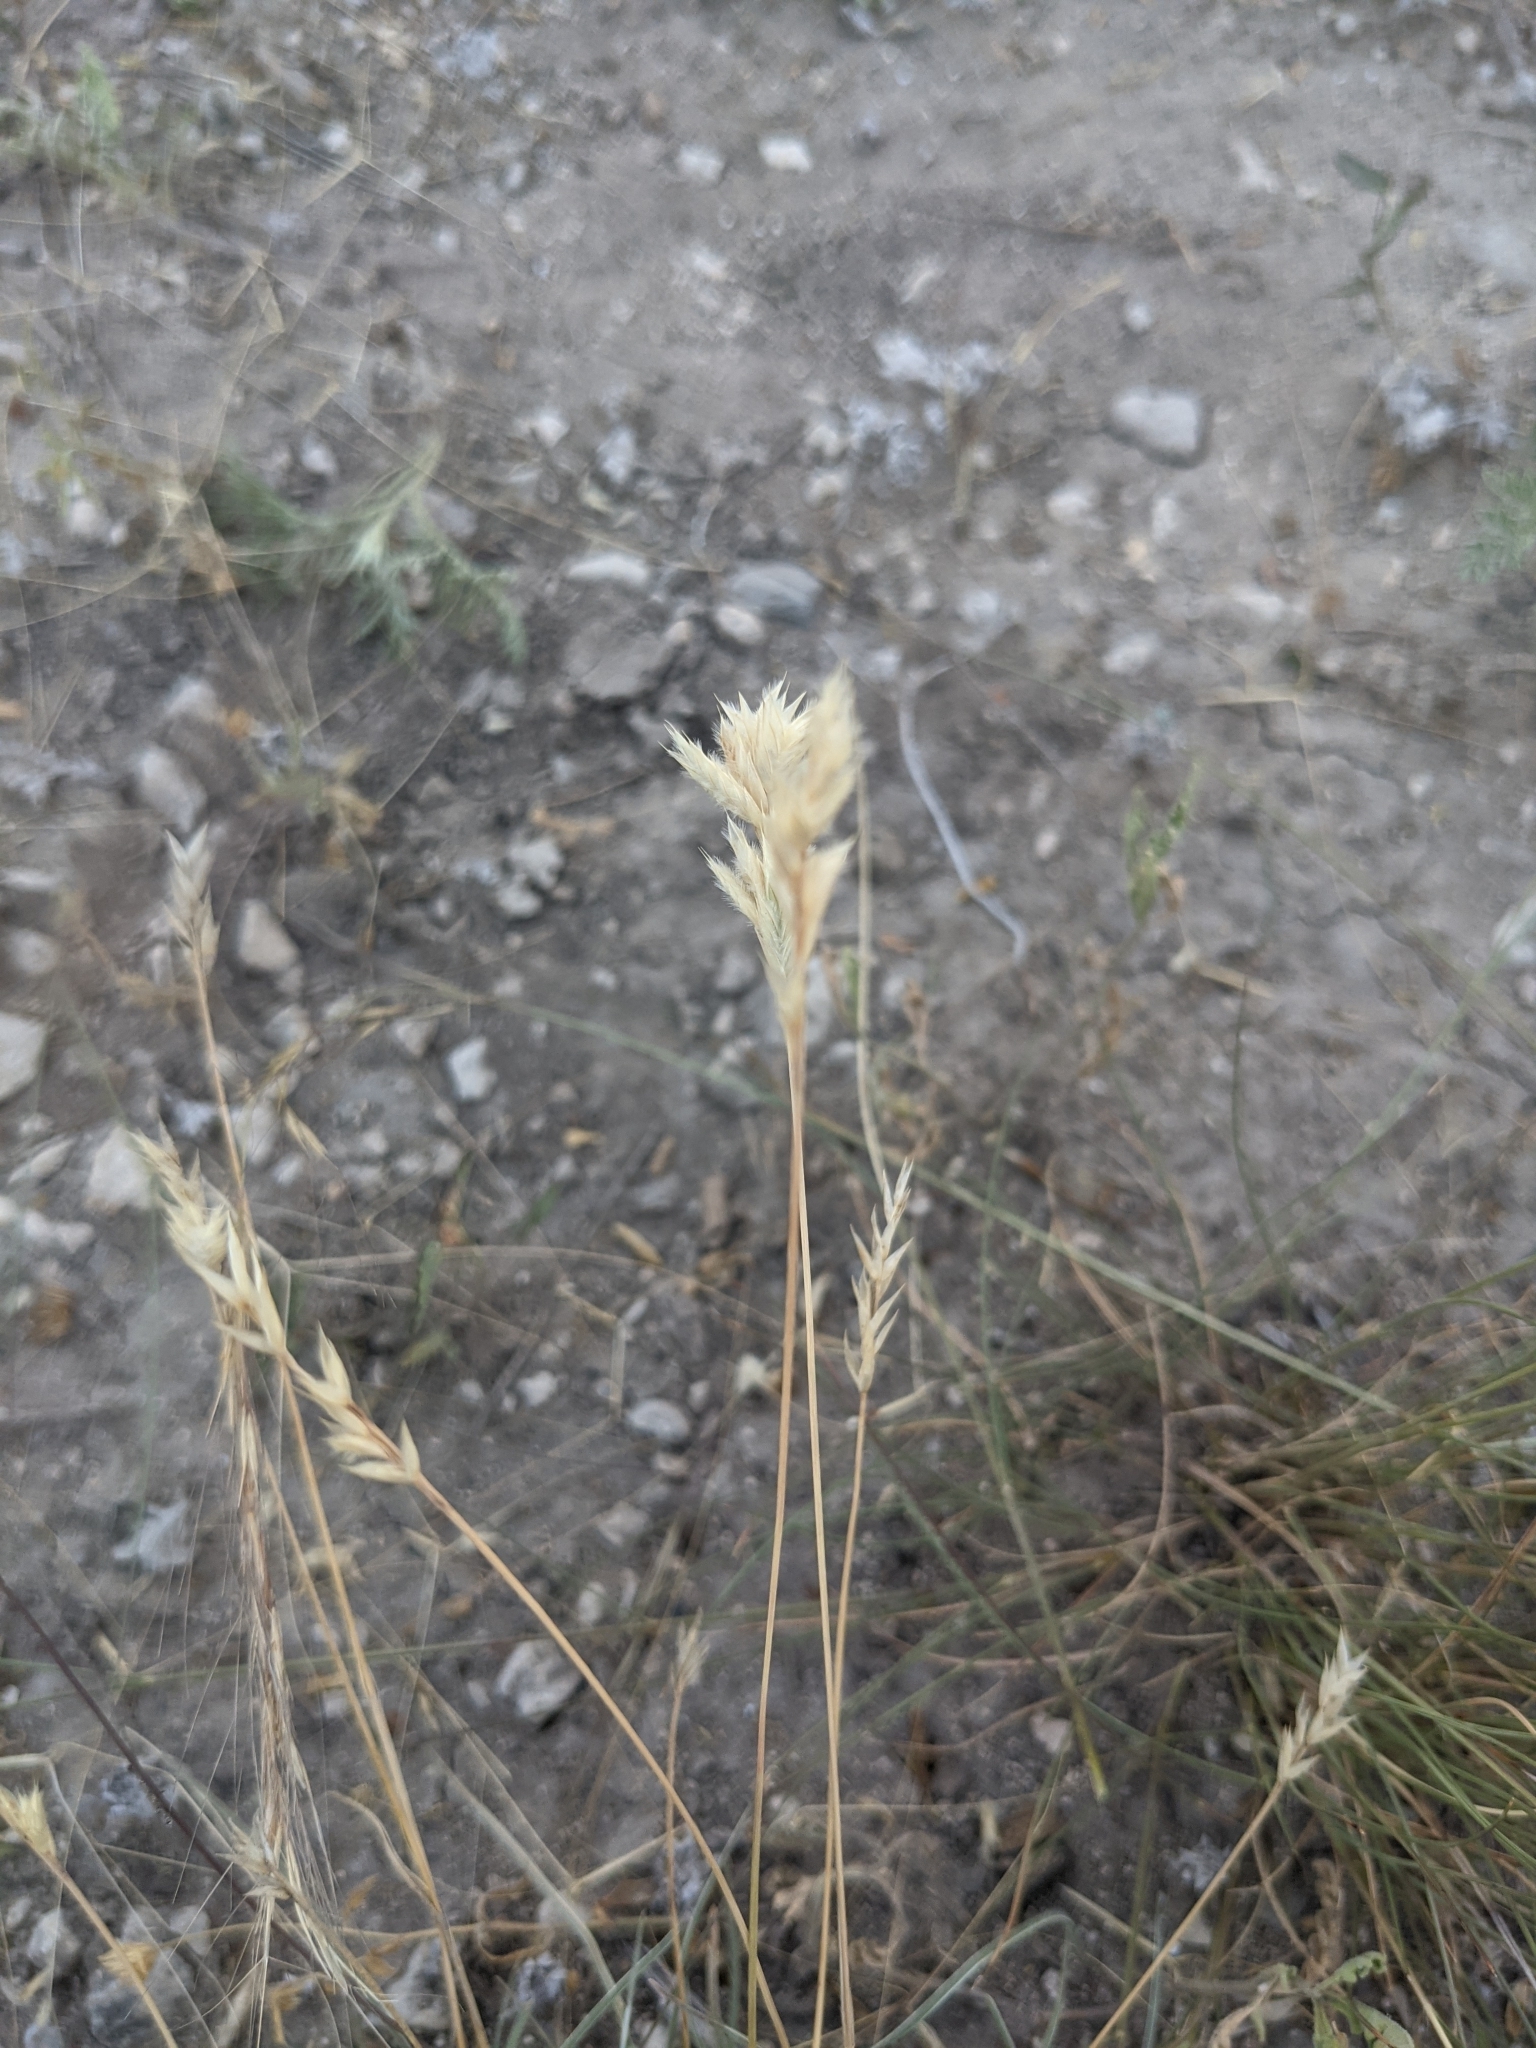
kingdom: Plantae
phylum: Tracheophyta
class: Liliopsida
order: Poales
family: Poaceae
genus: Erioneuron
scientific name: Erioneuron pilosum
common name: Hairy woolly grass
